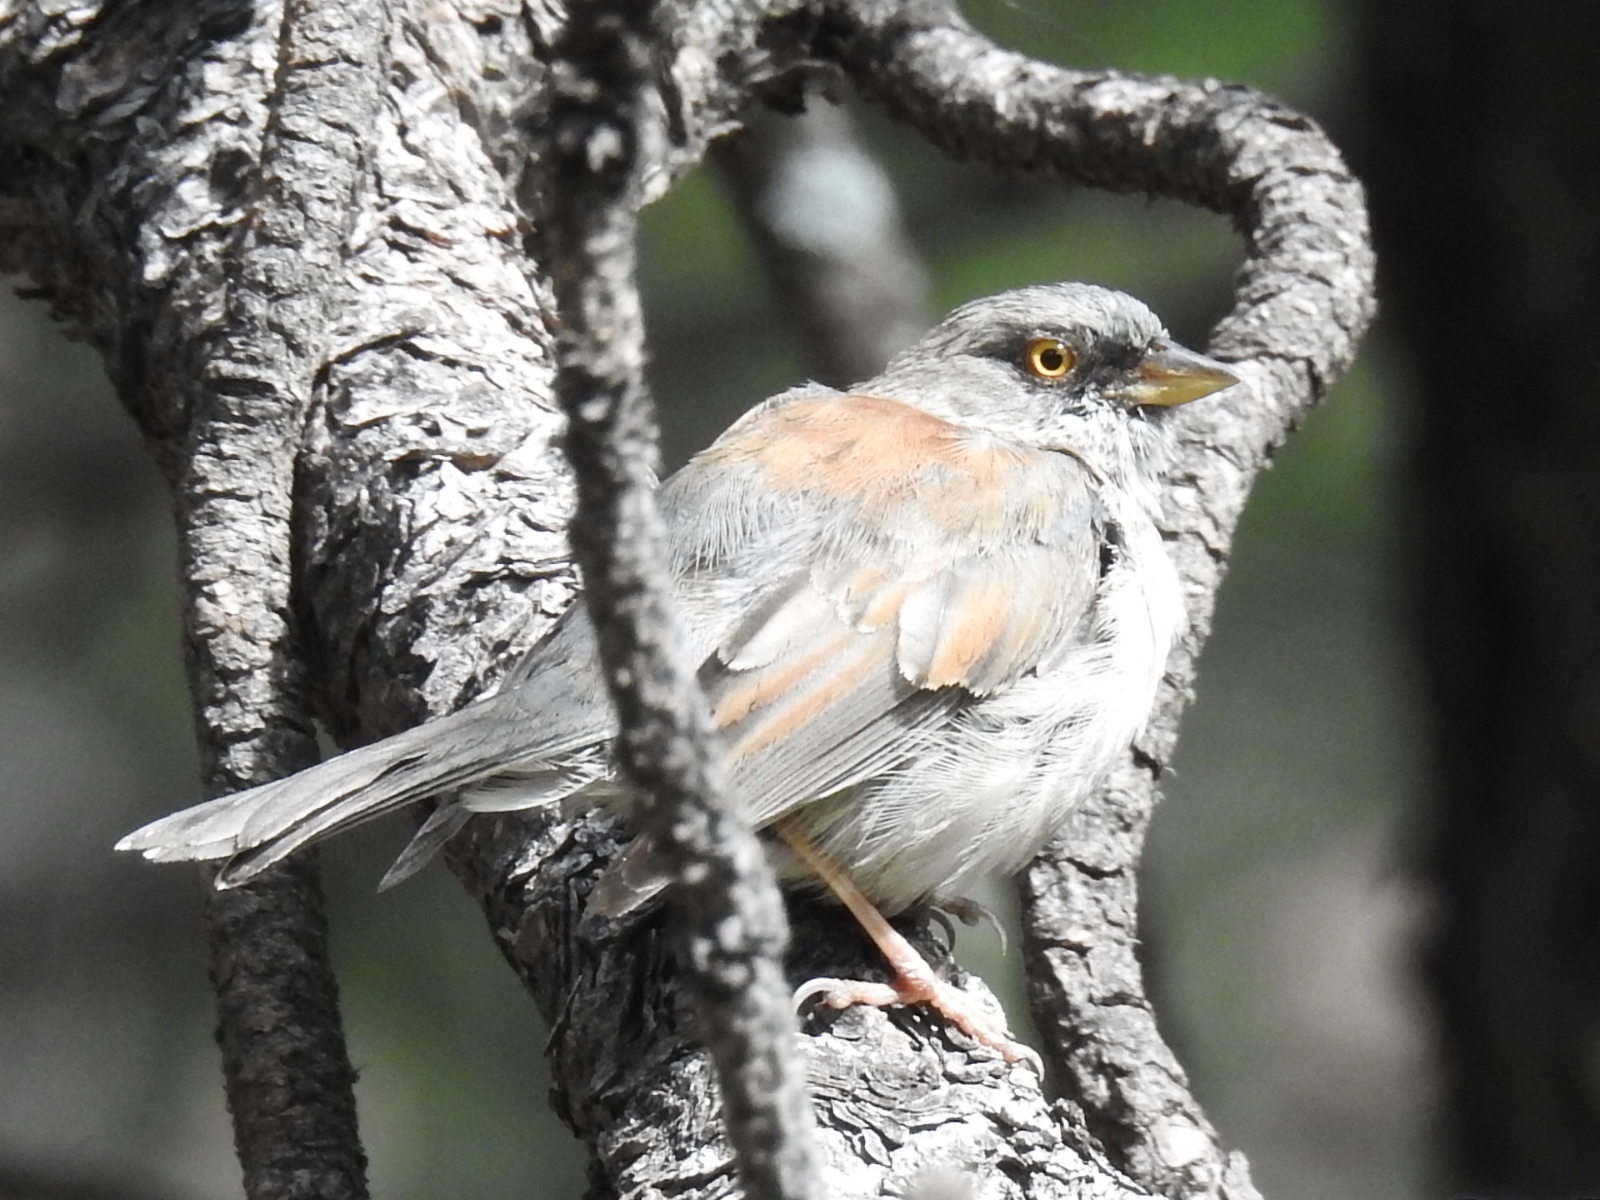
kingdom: Animalia
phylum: Chordata
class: Aves
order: Passeriformes
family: Passerellidae
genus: Junco
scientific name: Junco phaeonotus
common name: Yellow-eyed junco
